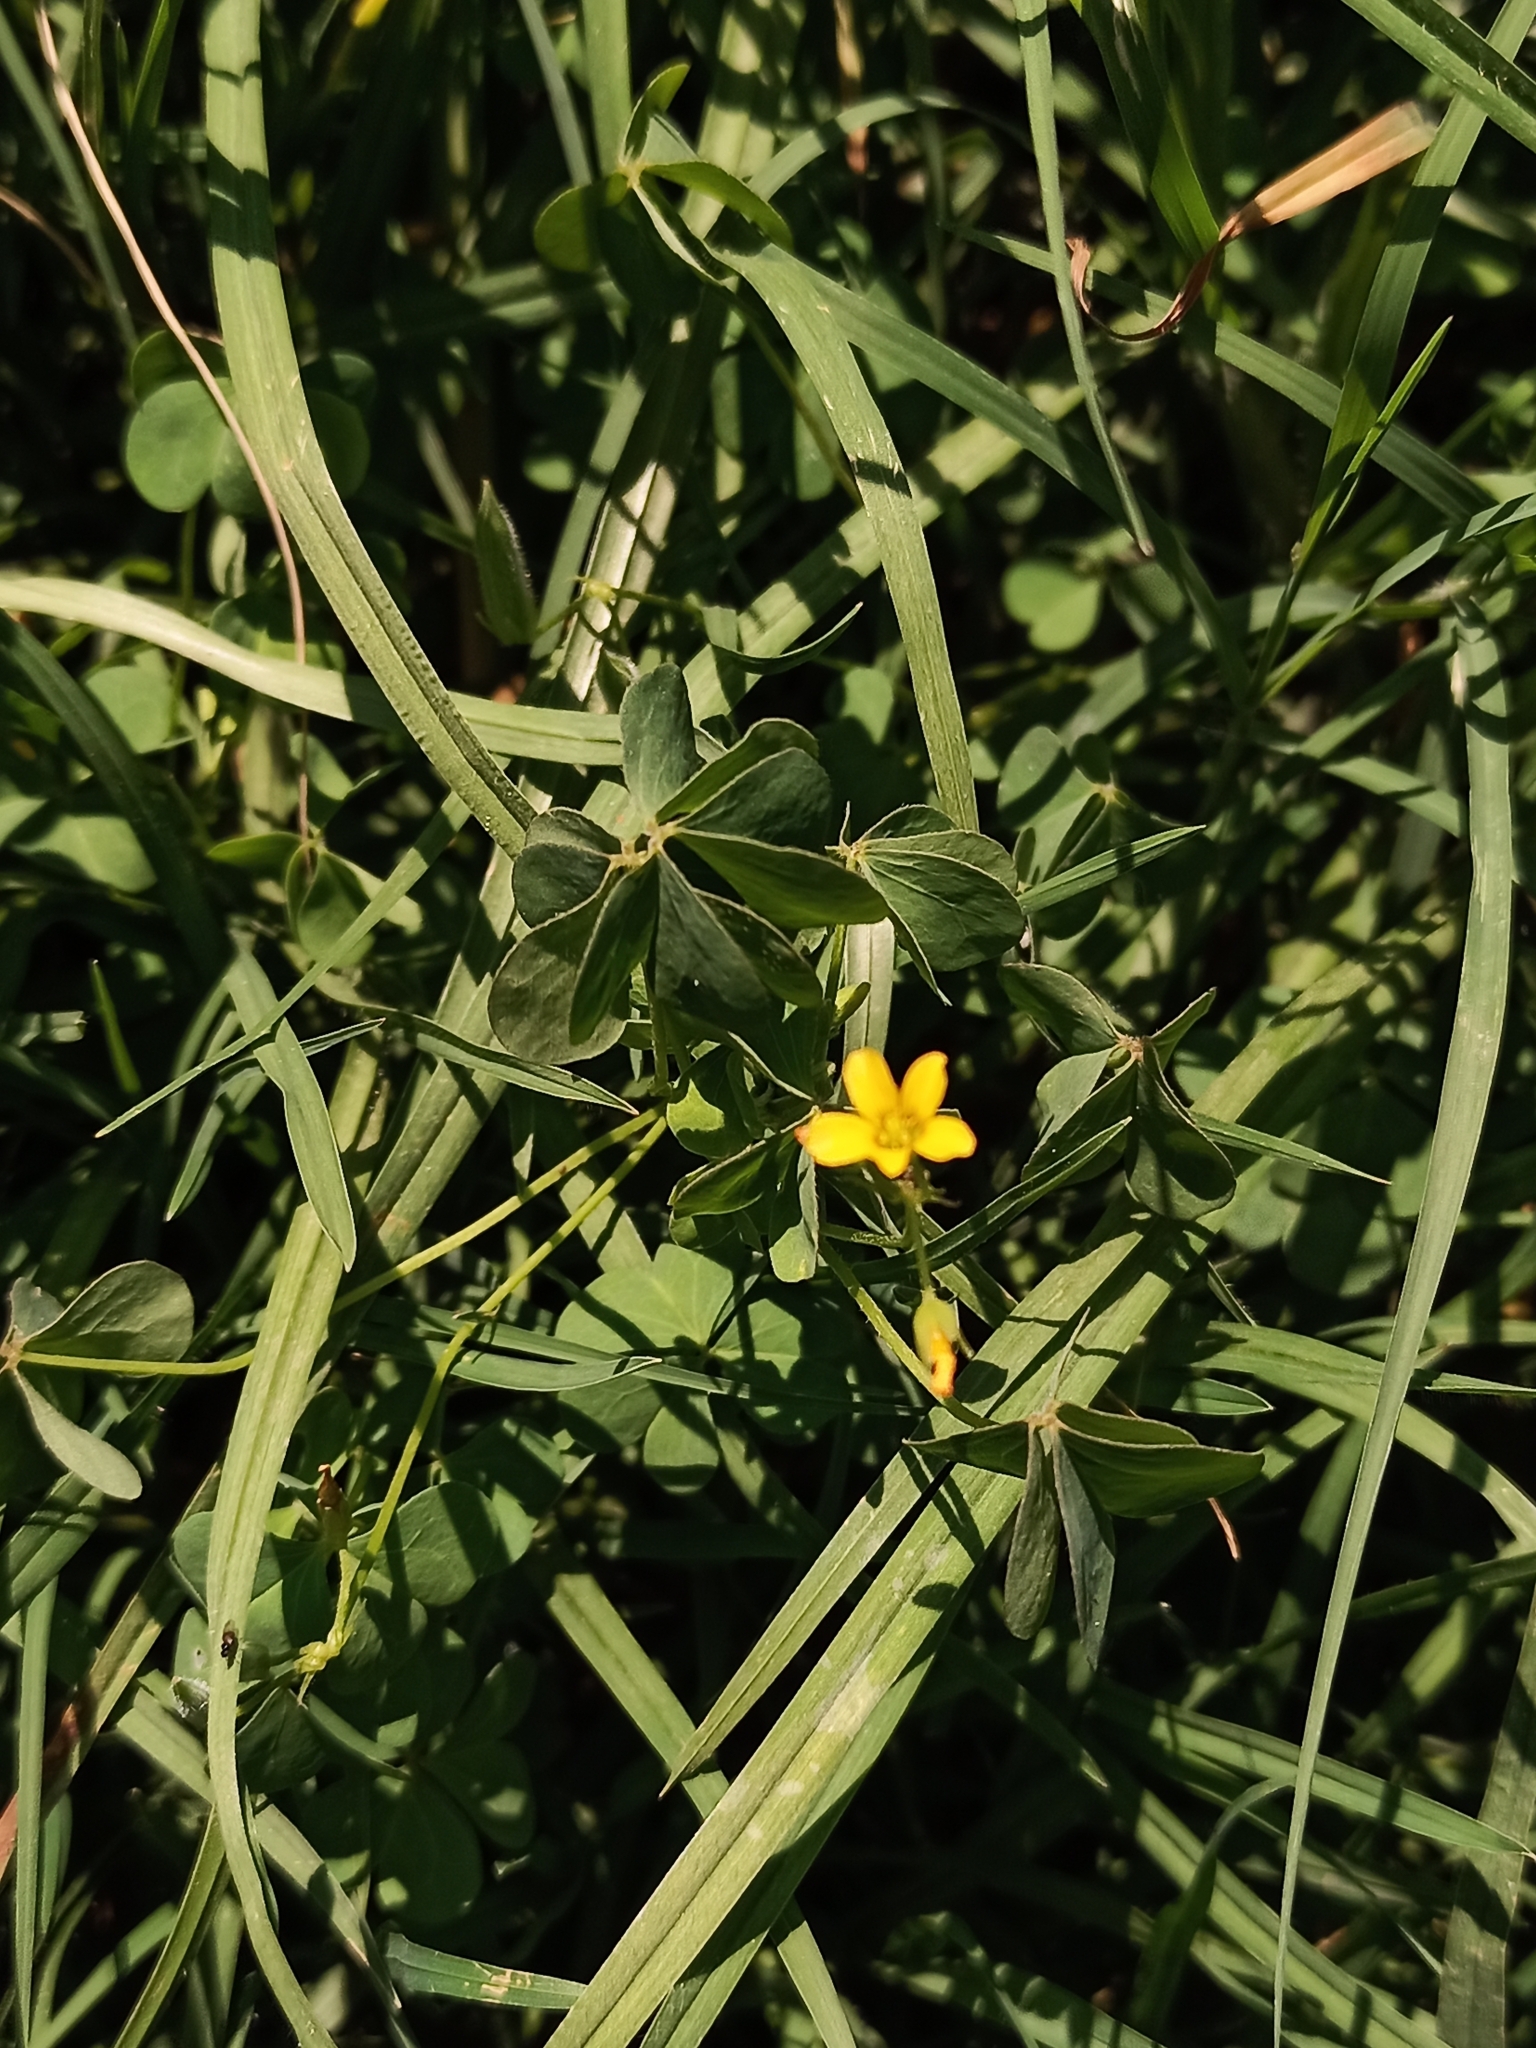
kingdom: Plantae
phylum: Tracheophyta
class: Magnoliopsida
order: Oxalidales
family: Oxalidaceae
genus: Oxalis
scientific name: Oxalis corniculata
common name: Procumbent yellow-sorrel
